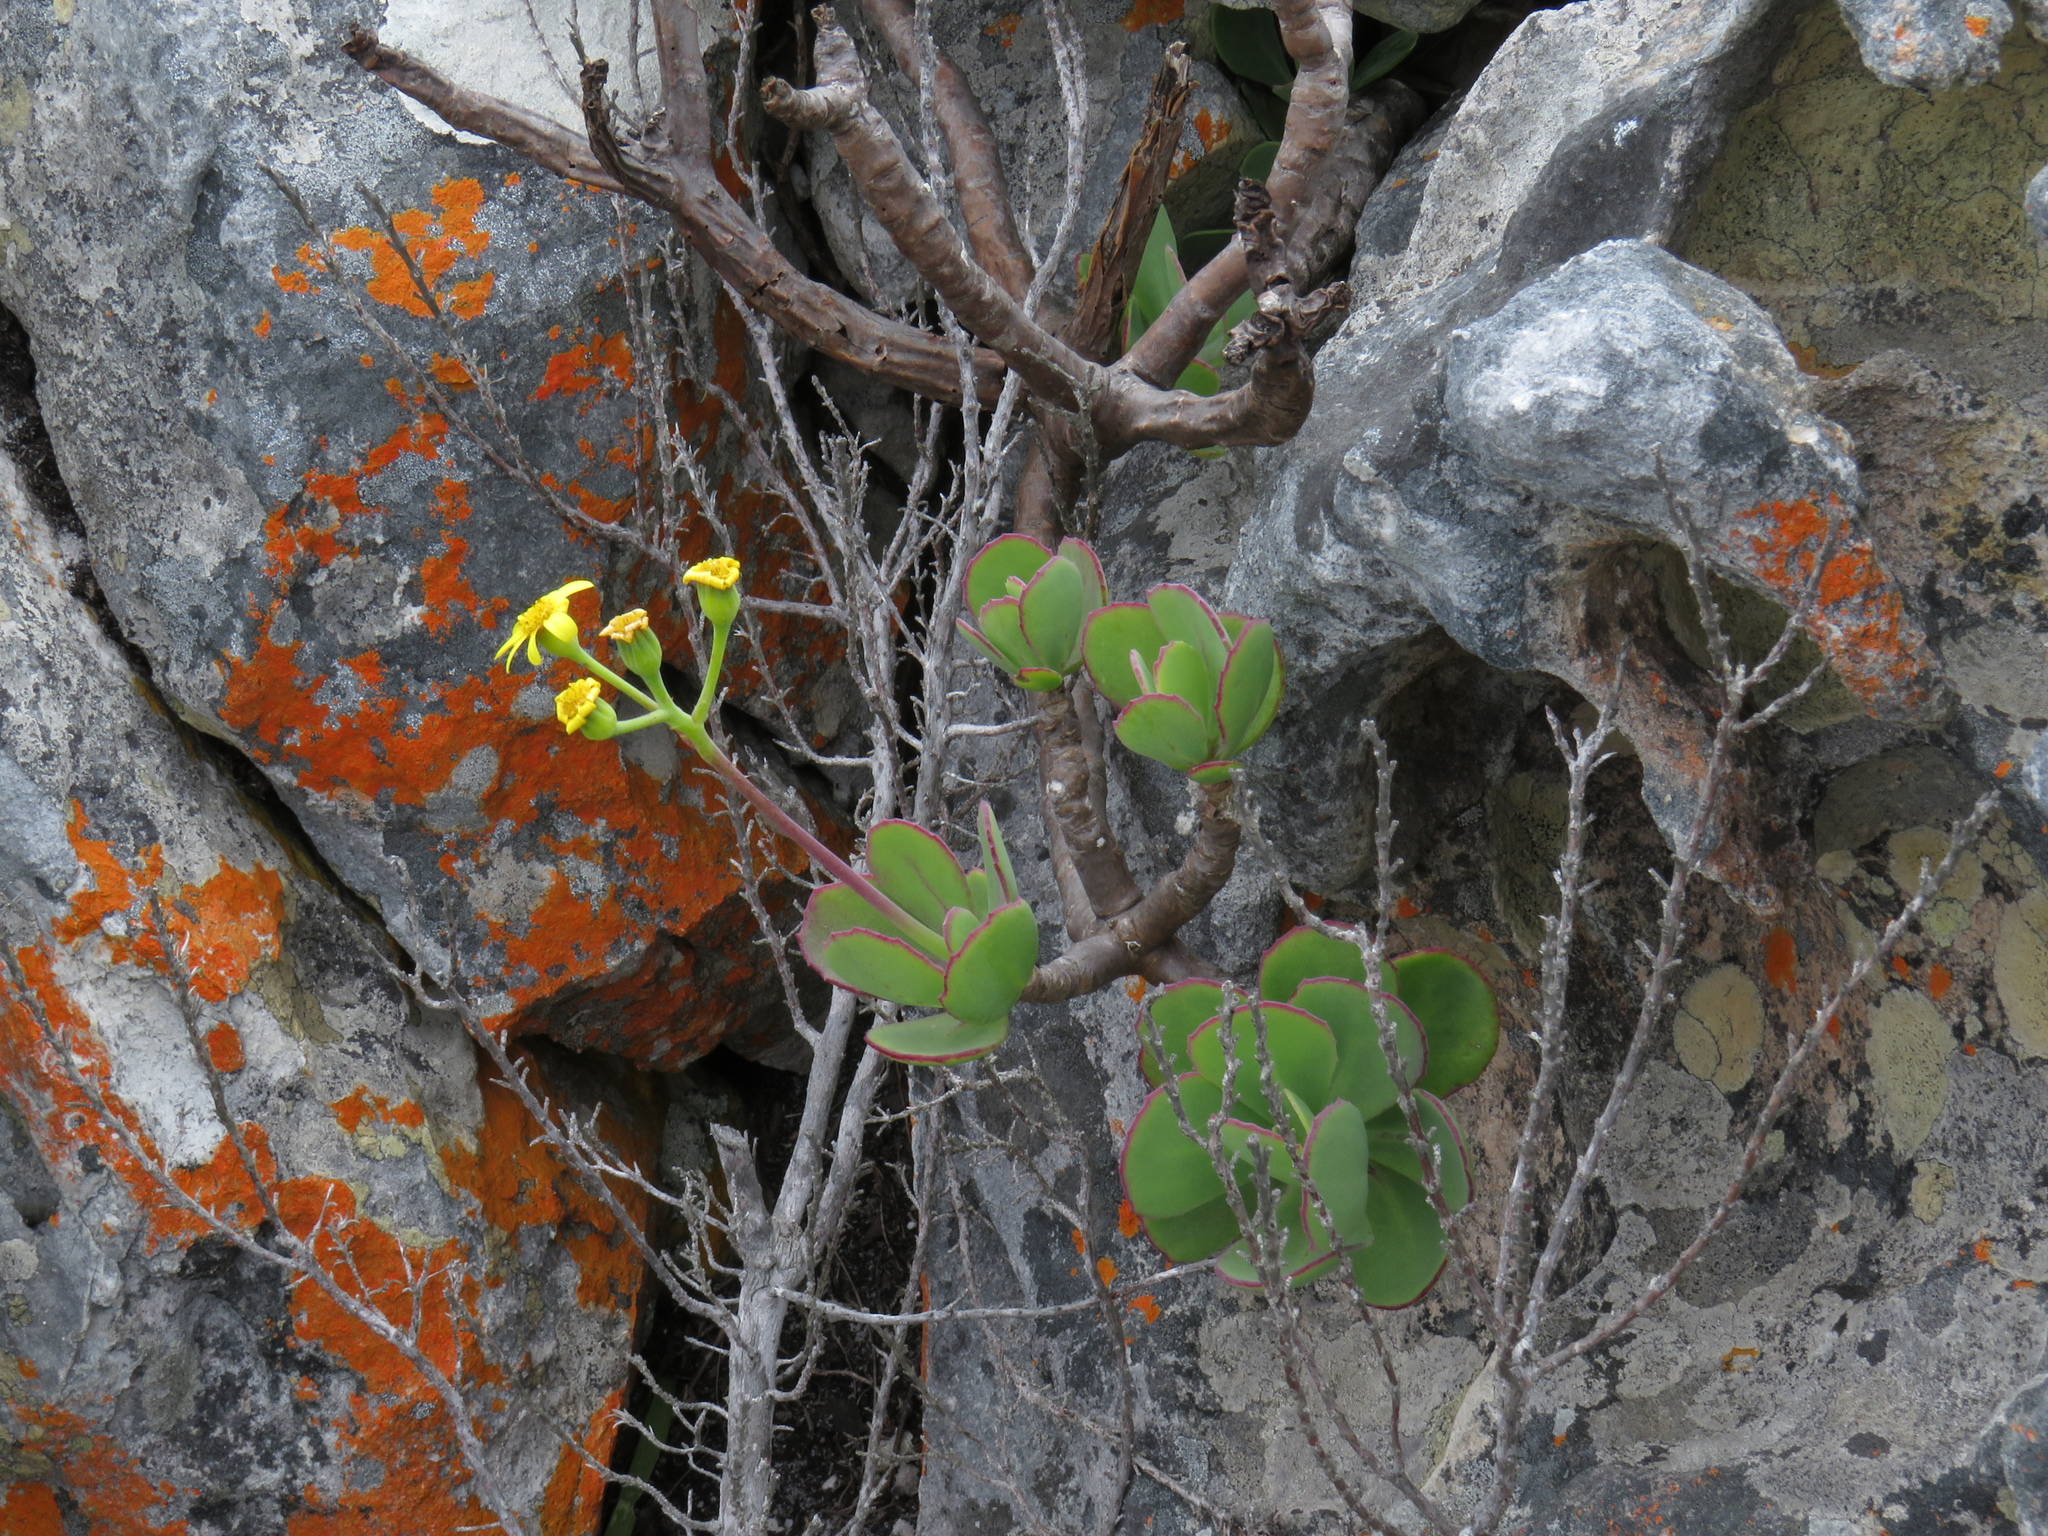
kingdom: Plantae
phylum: Tracheophyta
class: Magnoliopsida
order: Asterales
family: Asteraceae
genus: Othonna
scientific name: Othonna dentata
